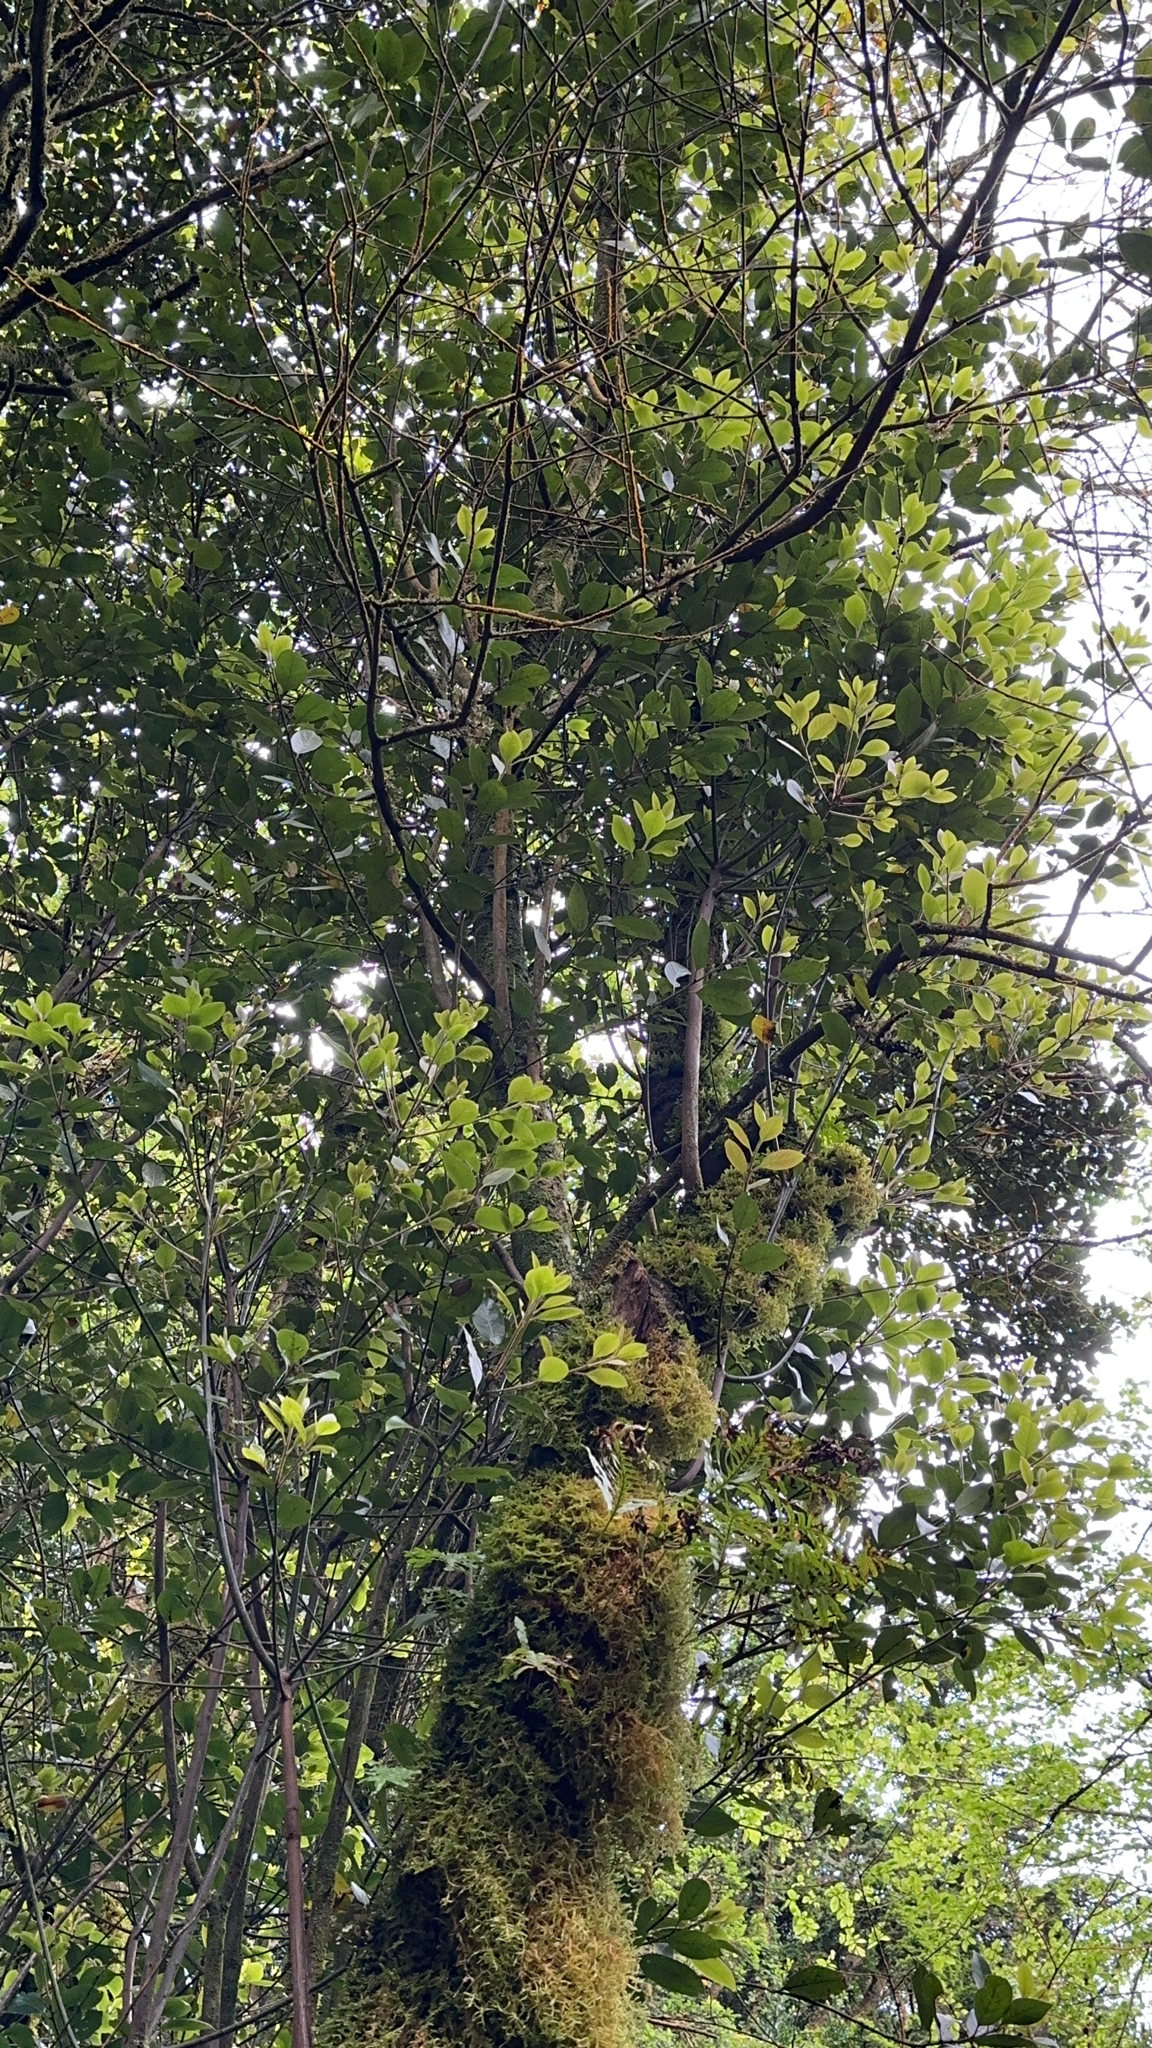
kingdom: Plantae
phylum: Tracheophyta
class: Magnoliopsida
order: Laurales
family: Lauraceae
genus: Laurus
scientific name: Laurus azorica
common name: Macaronesian laurel
